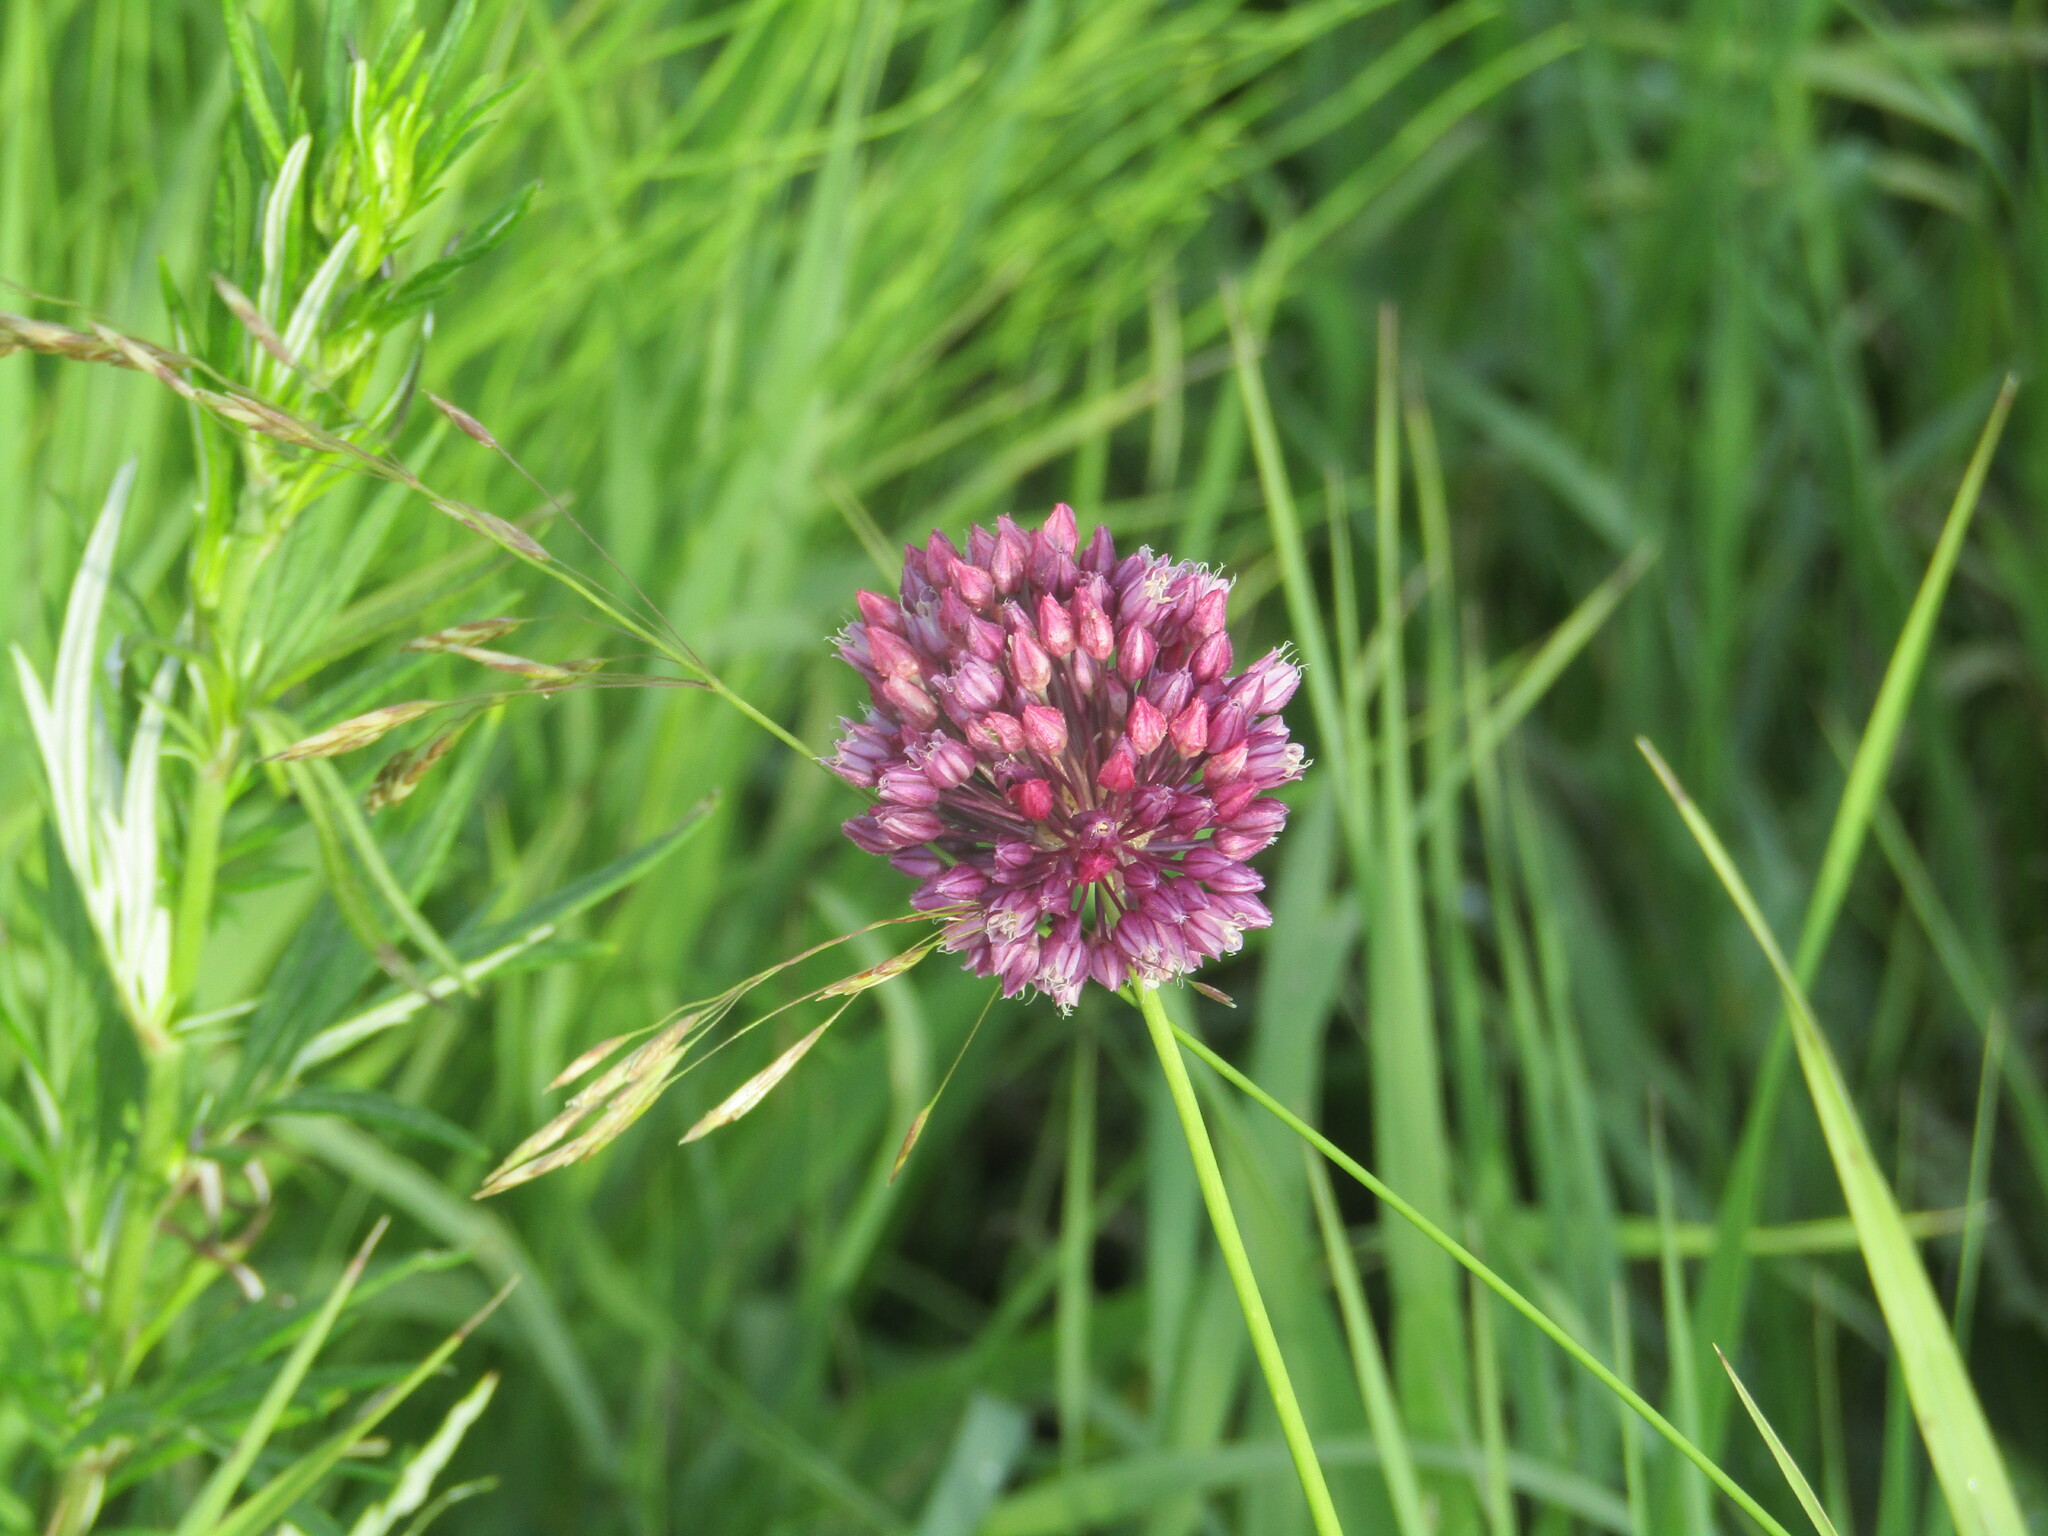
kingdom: Plantae
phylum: Tracheophyta
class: Liliopsida
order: Asparagales
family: Amaryllidaceae
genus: Allium
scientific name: Allium rotundum
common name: Sand leek
